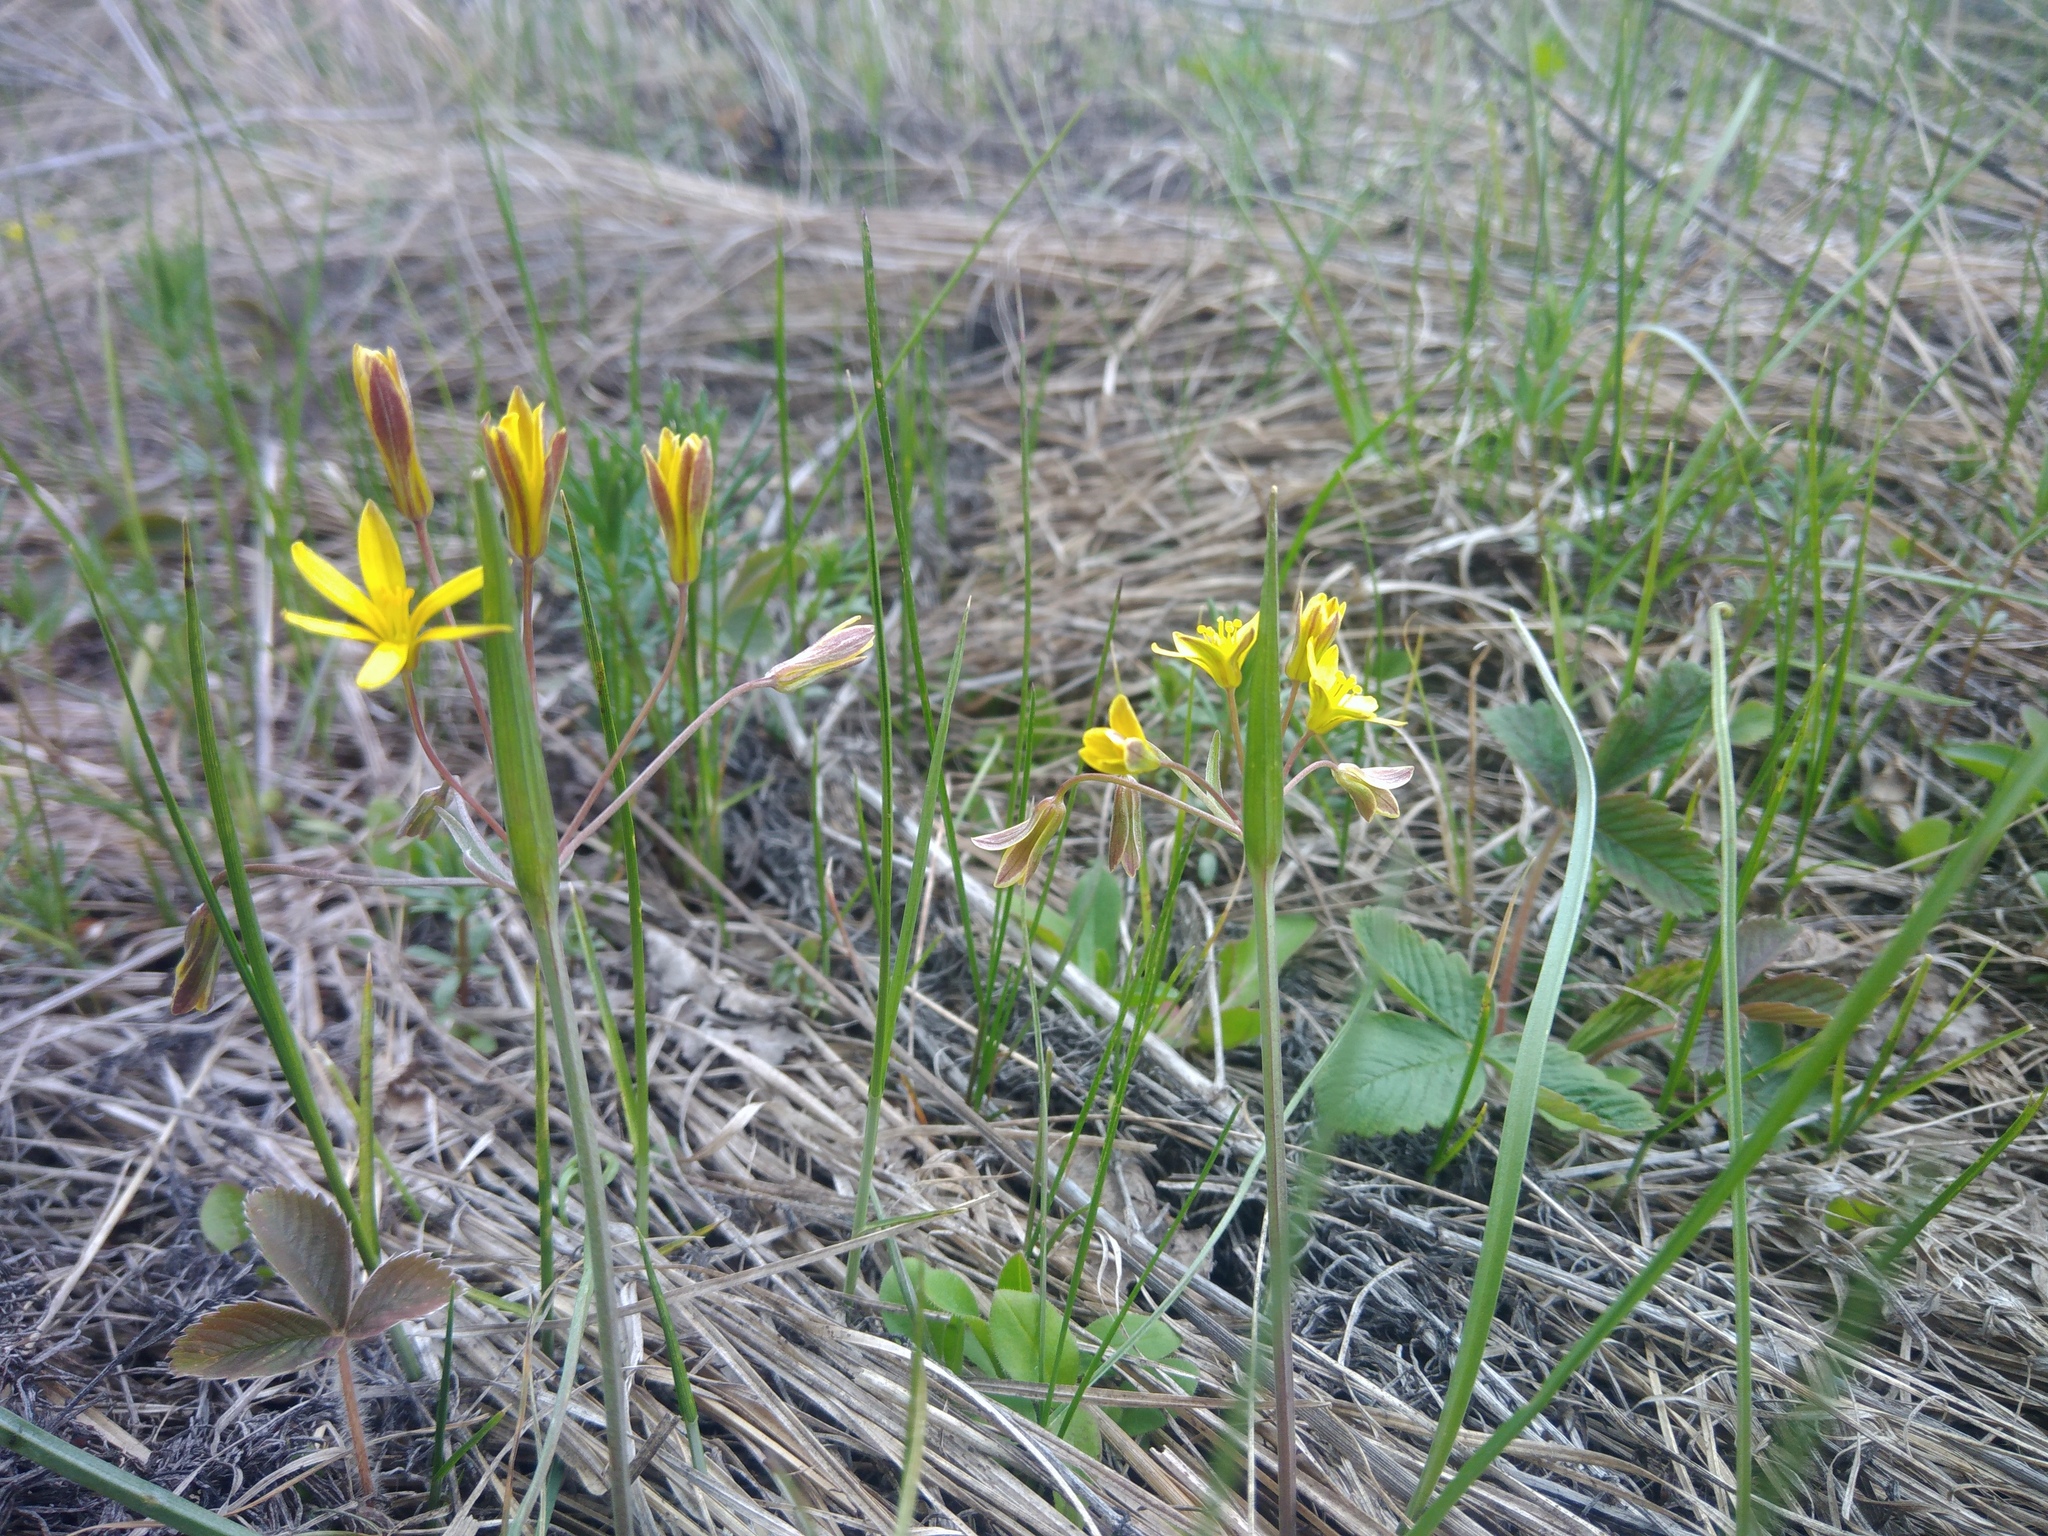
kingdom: Plantae
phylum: Tracheophyta
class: Liliopsida
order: Liliales
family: Liliaceae
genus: Gagea
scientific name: Gagea fragifera
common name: Lily
